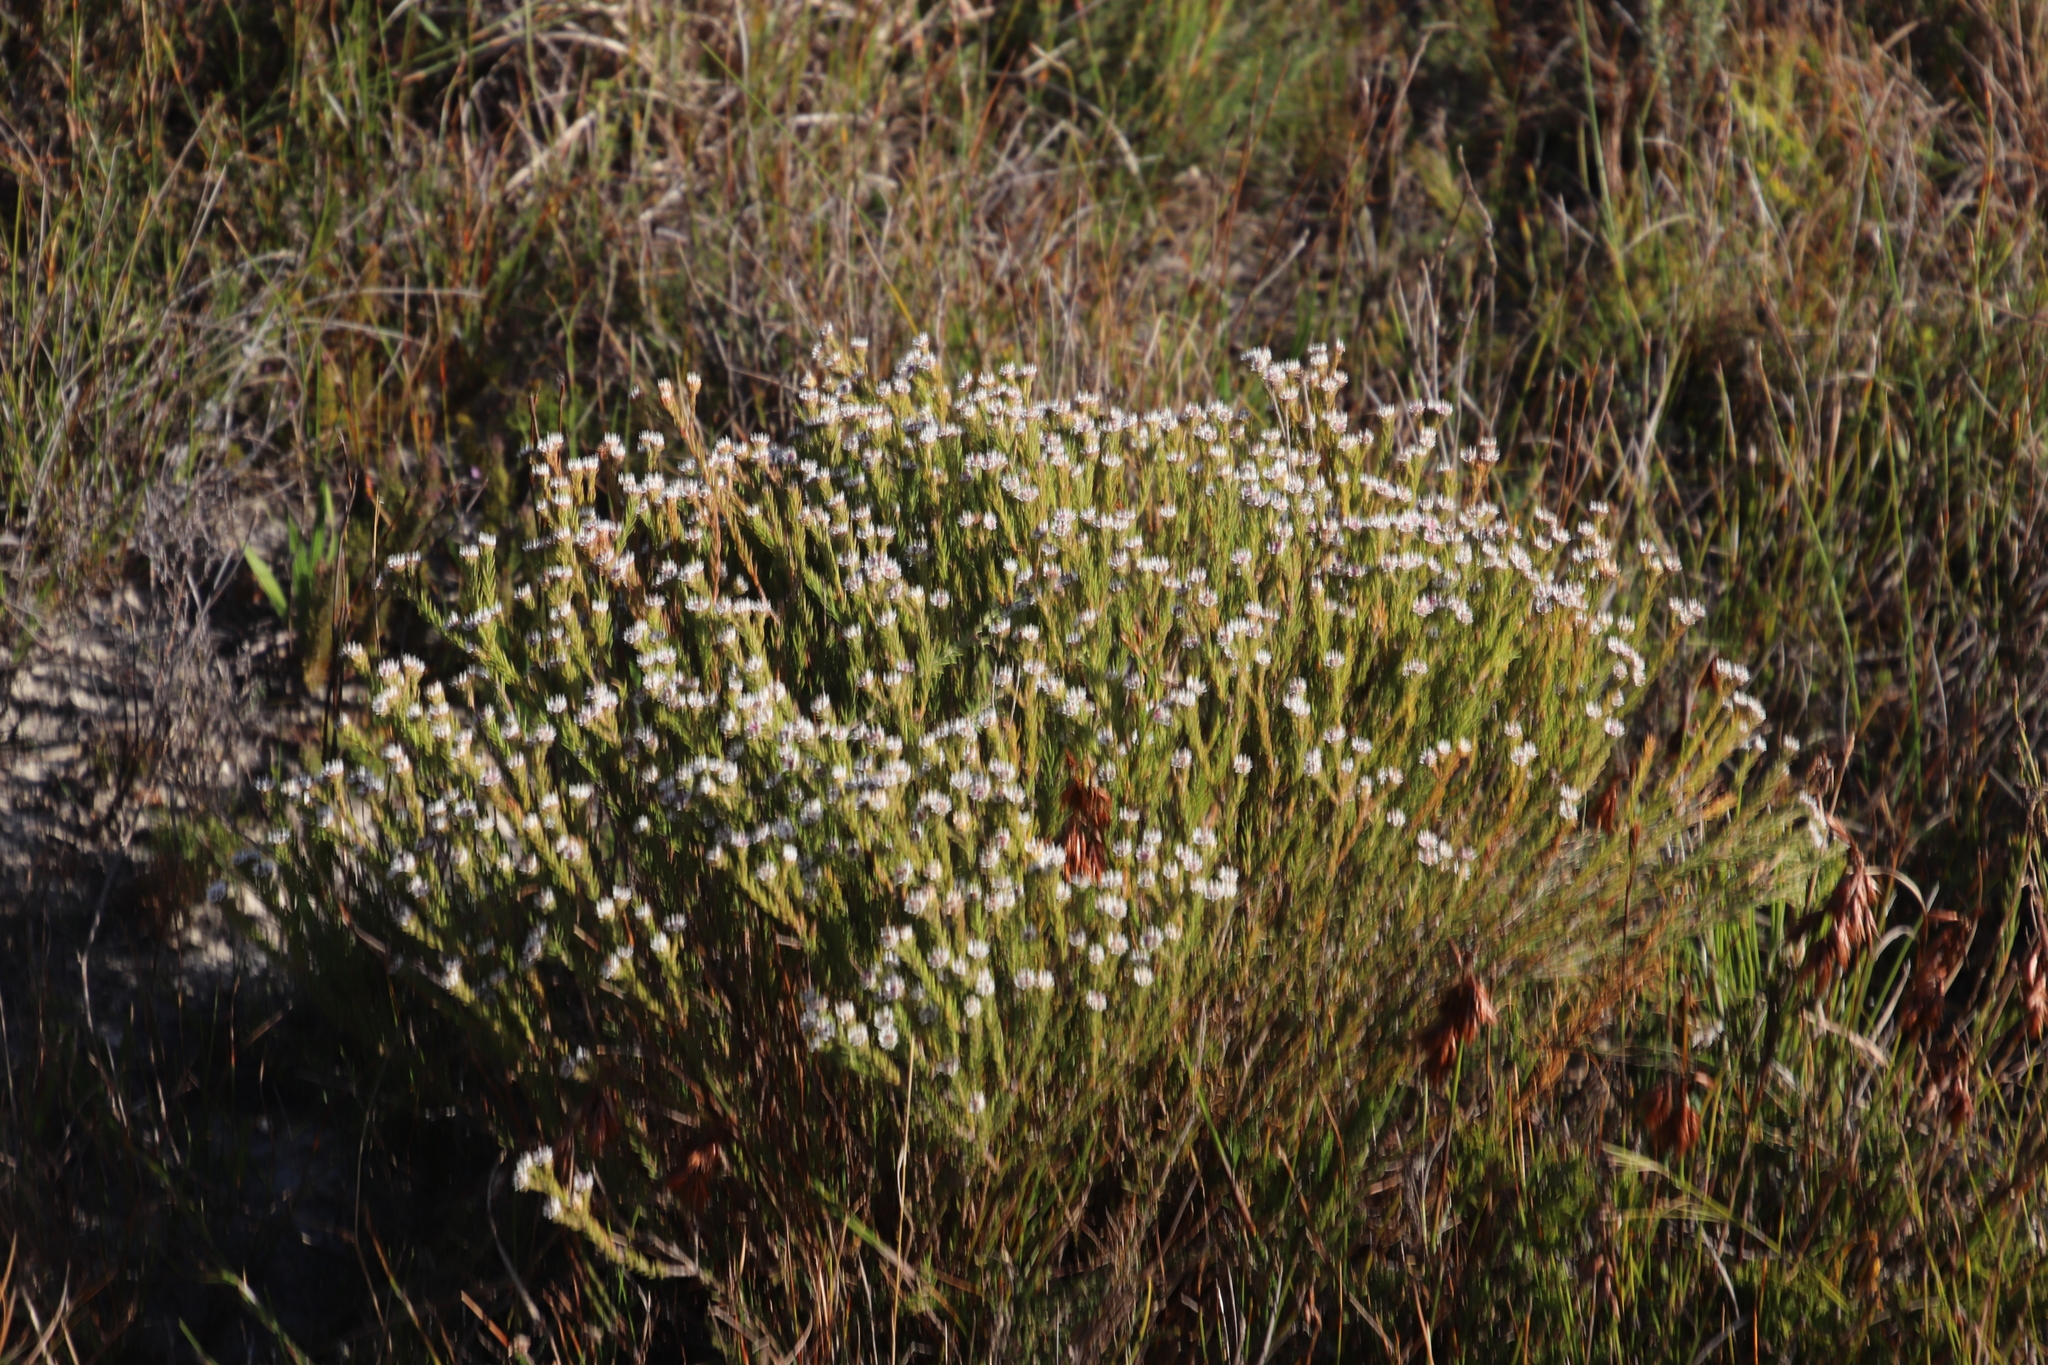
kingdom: Plantae
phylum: Tracheophyta
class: Magnoliopsida
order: Bruniales
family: Bruniaceae
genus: Staavia
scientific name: Staavia radiata
